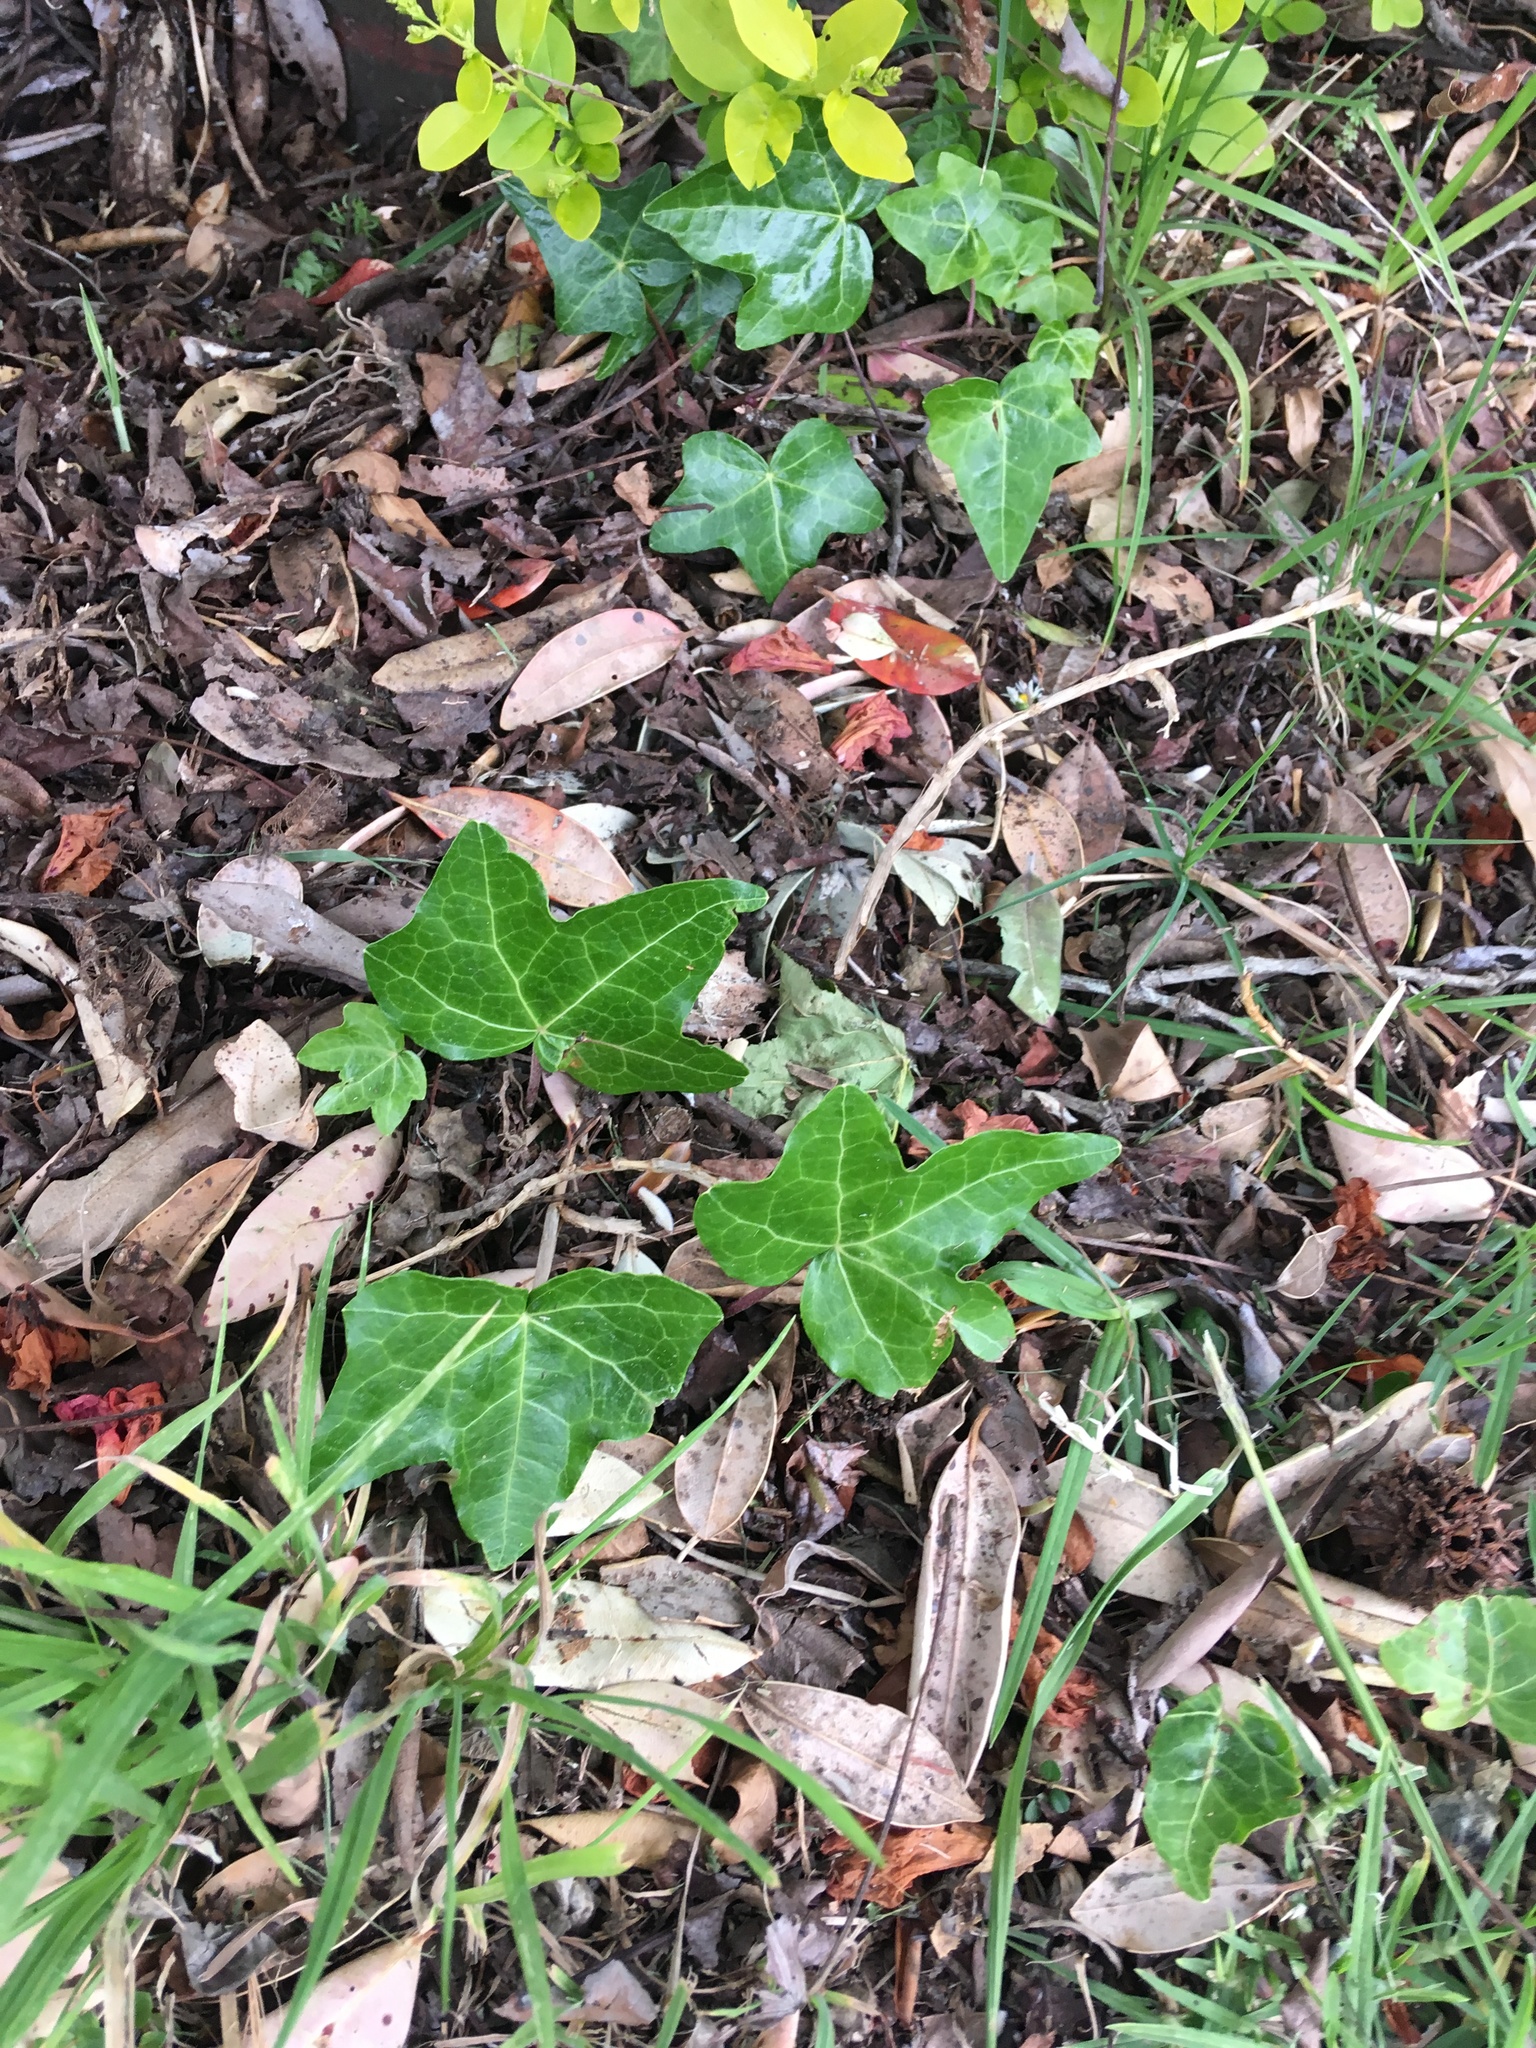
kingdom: Plantae
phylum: Tracheophyta
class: Magnoliopsida
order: Apiales
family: Araliaceae
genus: Hedera
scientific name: Hedera helix
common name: Ivy
